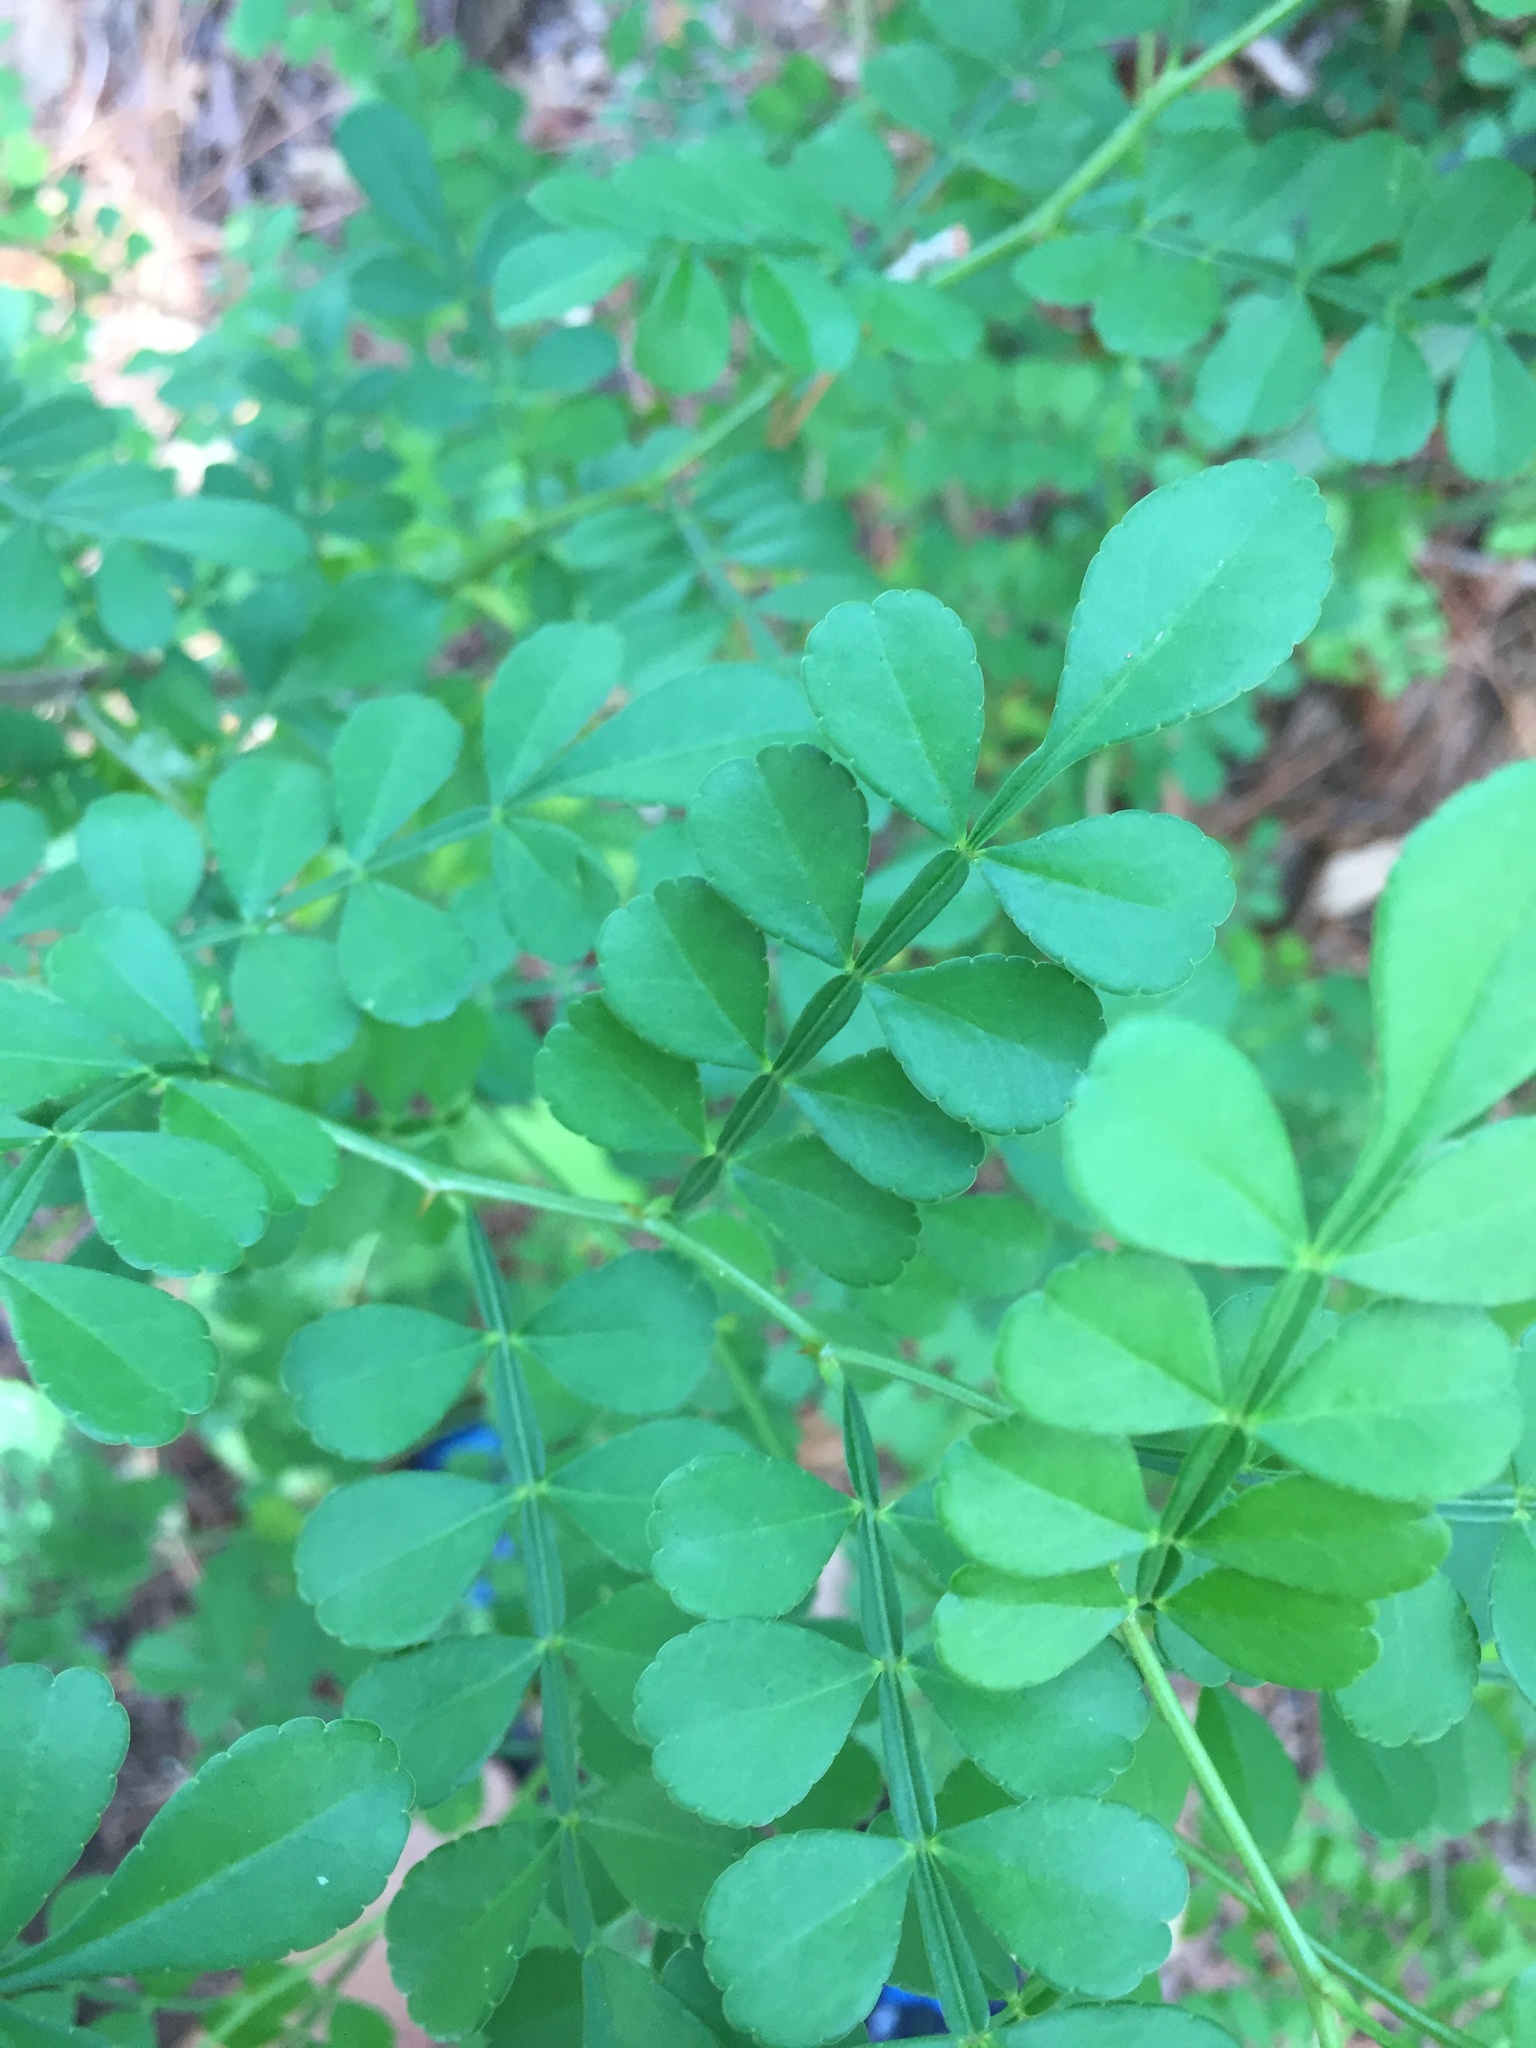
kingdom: Plantae
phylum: Tracheophyta
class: Magnoliopsida
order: Sapindales
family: Rutaceae
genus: Zanthoxylum
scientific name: Zanthoxylum fagara
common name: Lime prickly-ash
